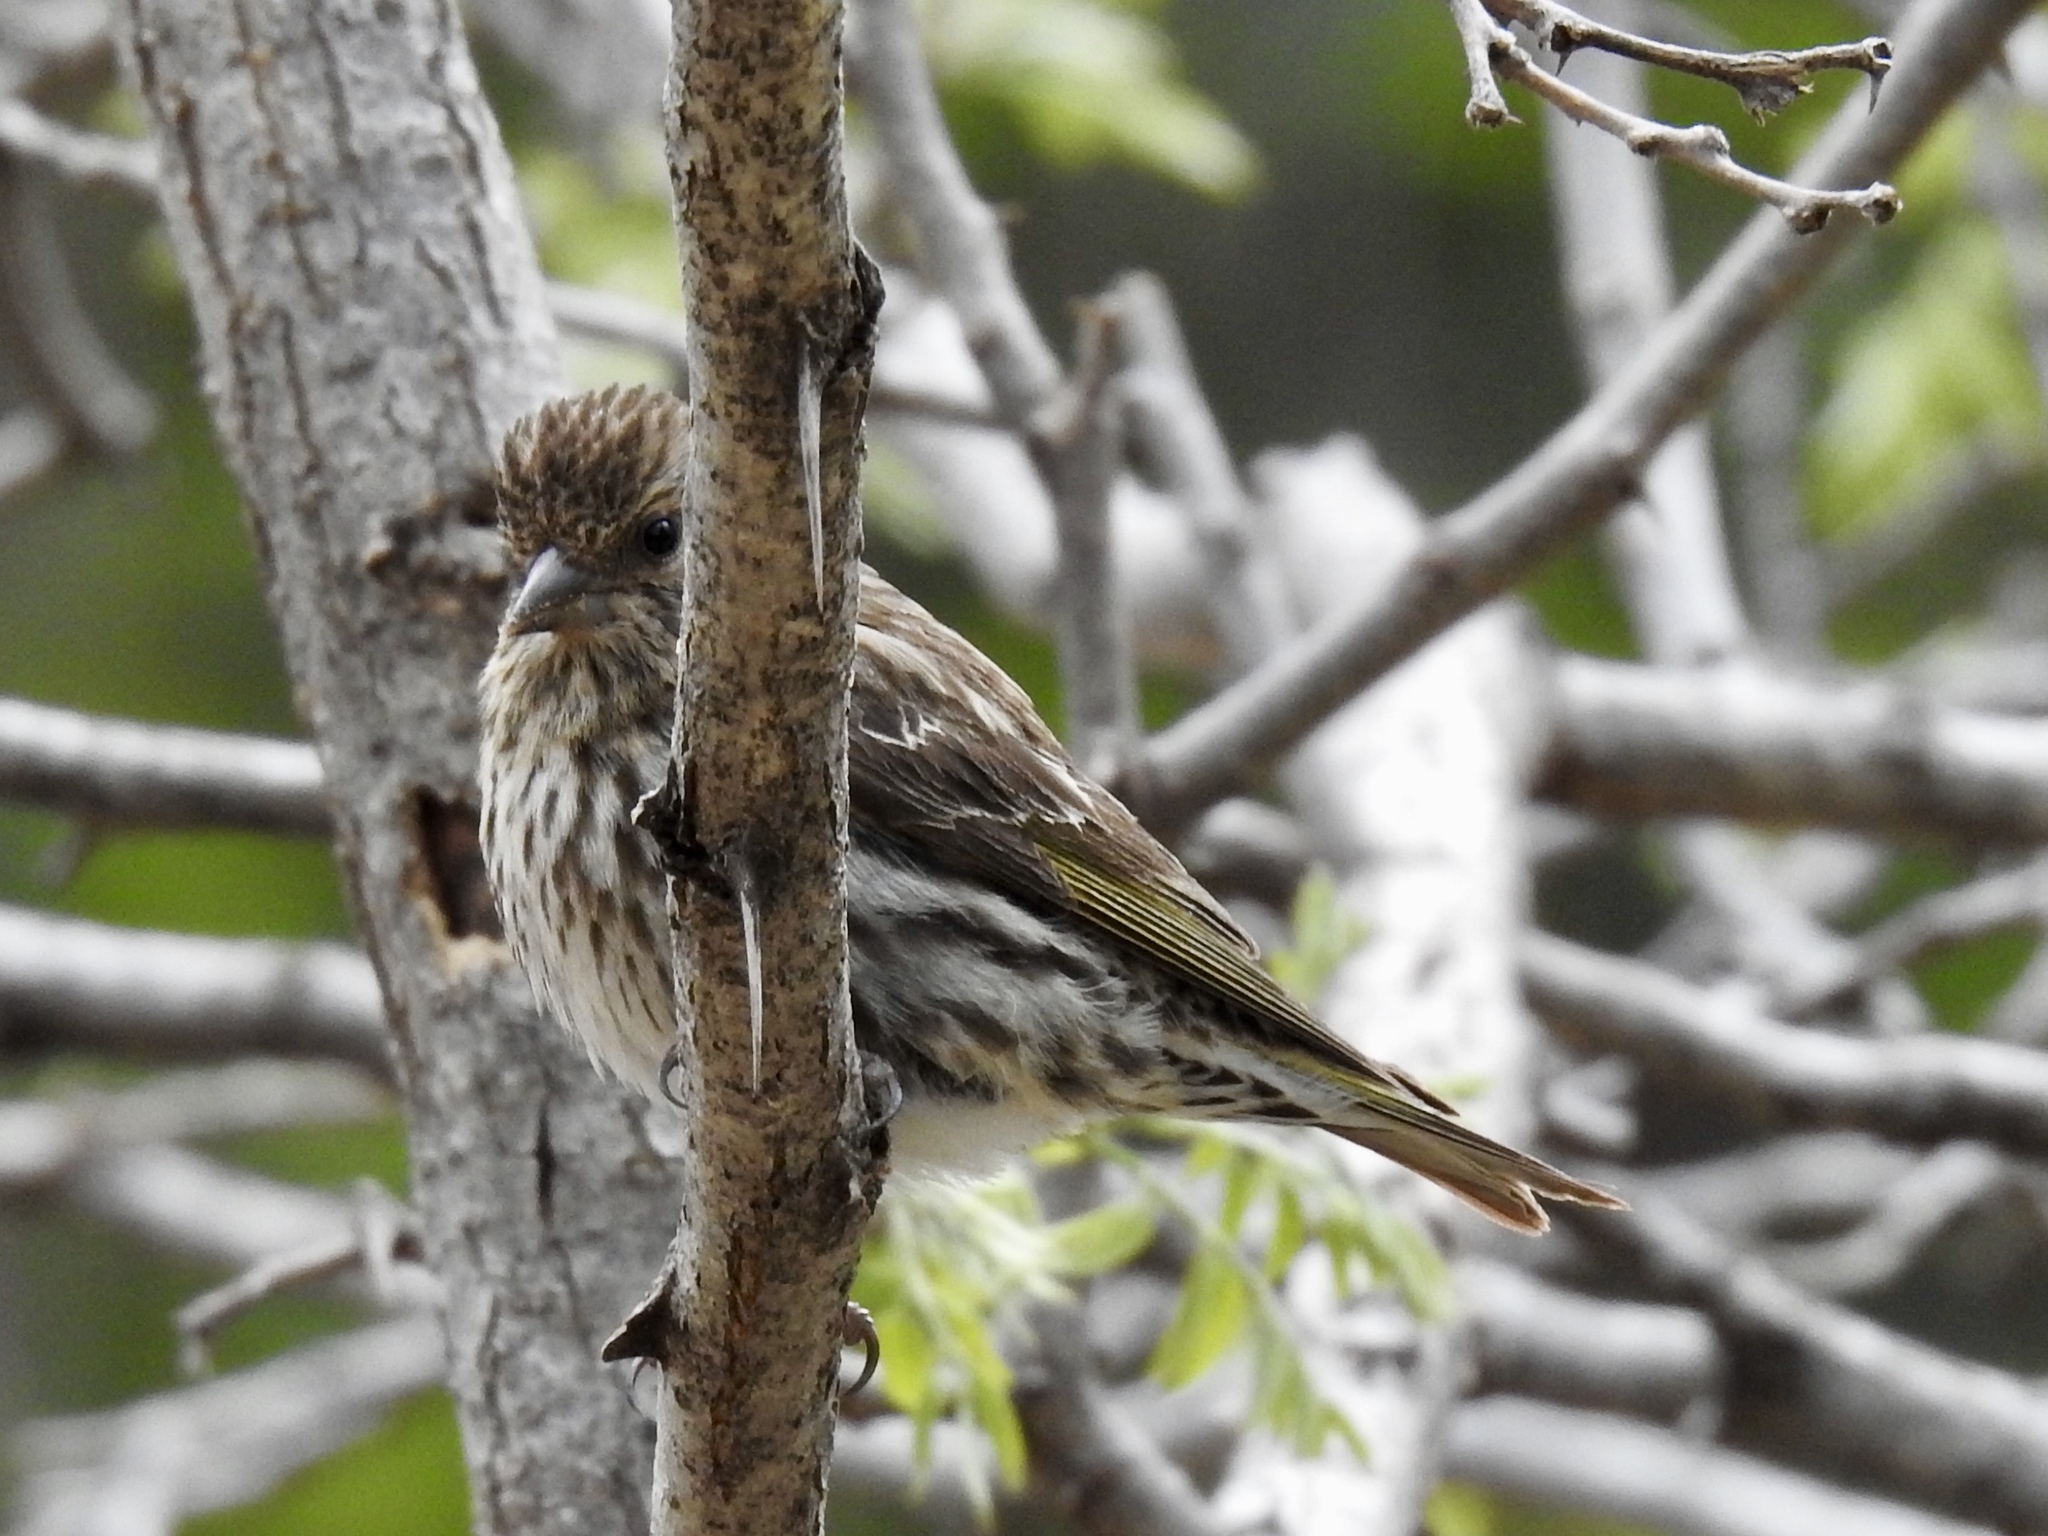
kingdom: Animalia
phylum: Chordata
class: Aves
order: Passeriformes
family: Fringillidae
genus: Spinus
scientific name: Spinus pinus
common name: Pine siskin
